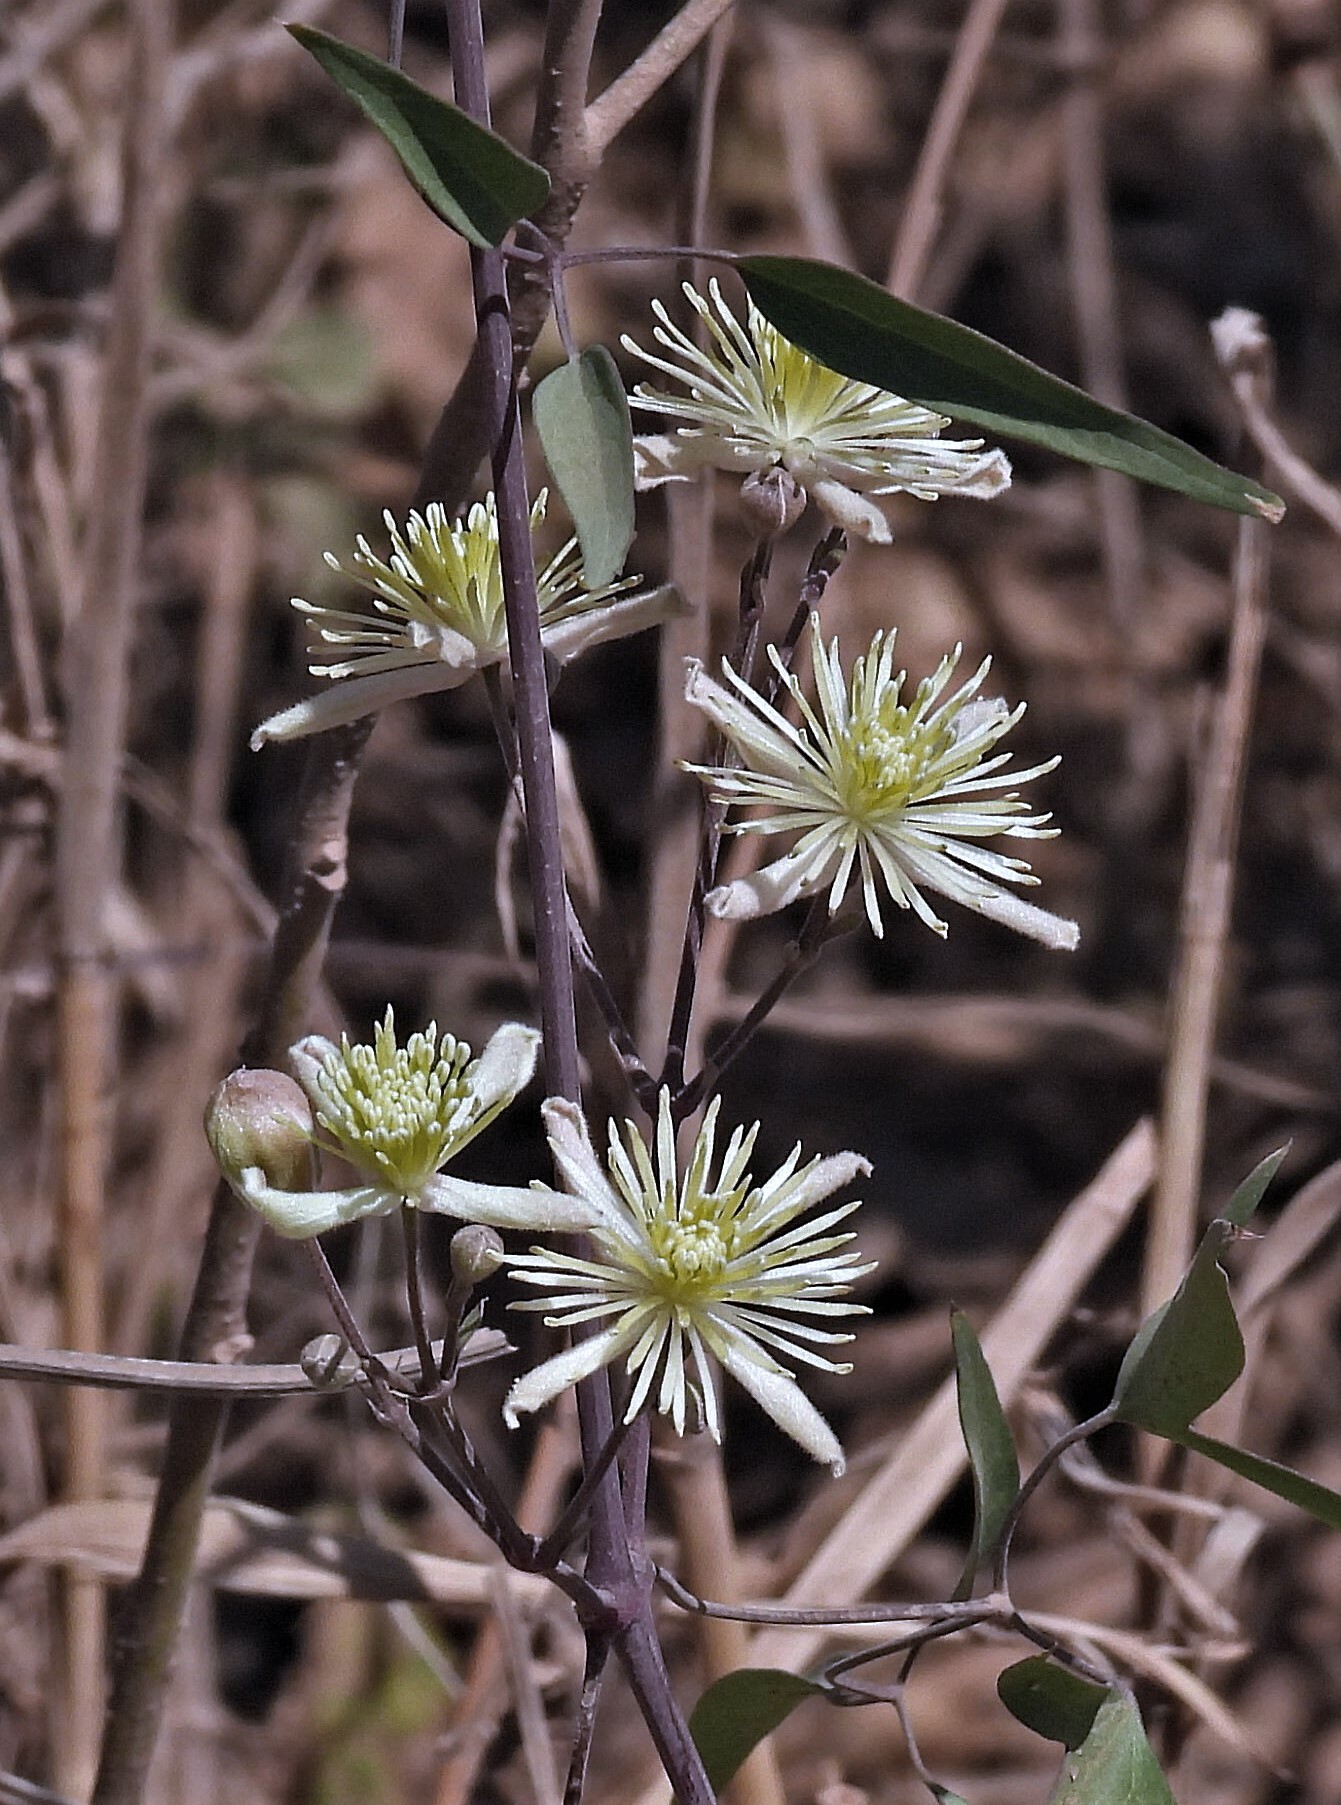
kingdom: Plantae
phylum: Tracheophyta
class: Magnoliopsida
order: Ranunculales
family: Ranunculaceae
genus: Clematis
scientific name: Clematis montevidensis
